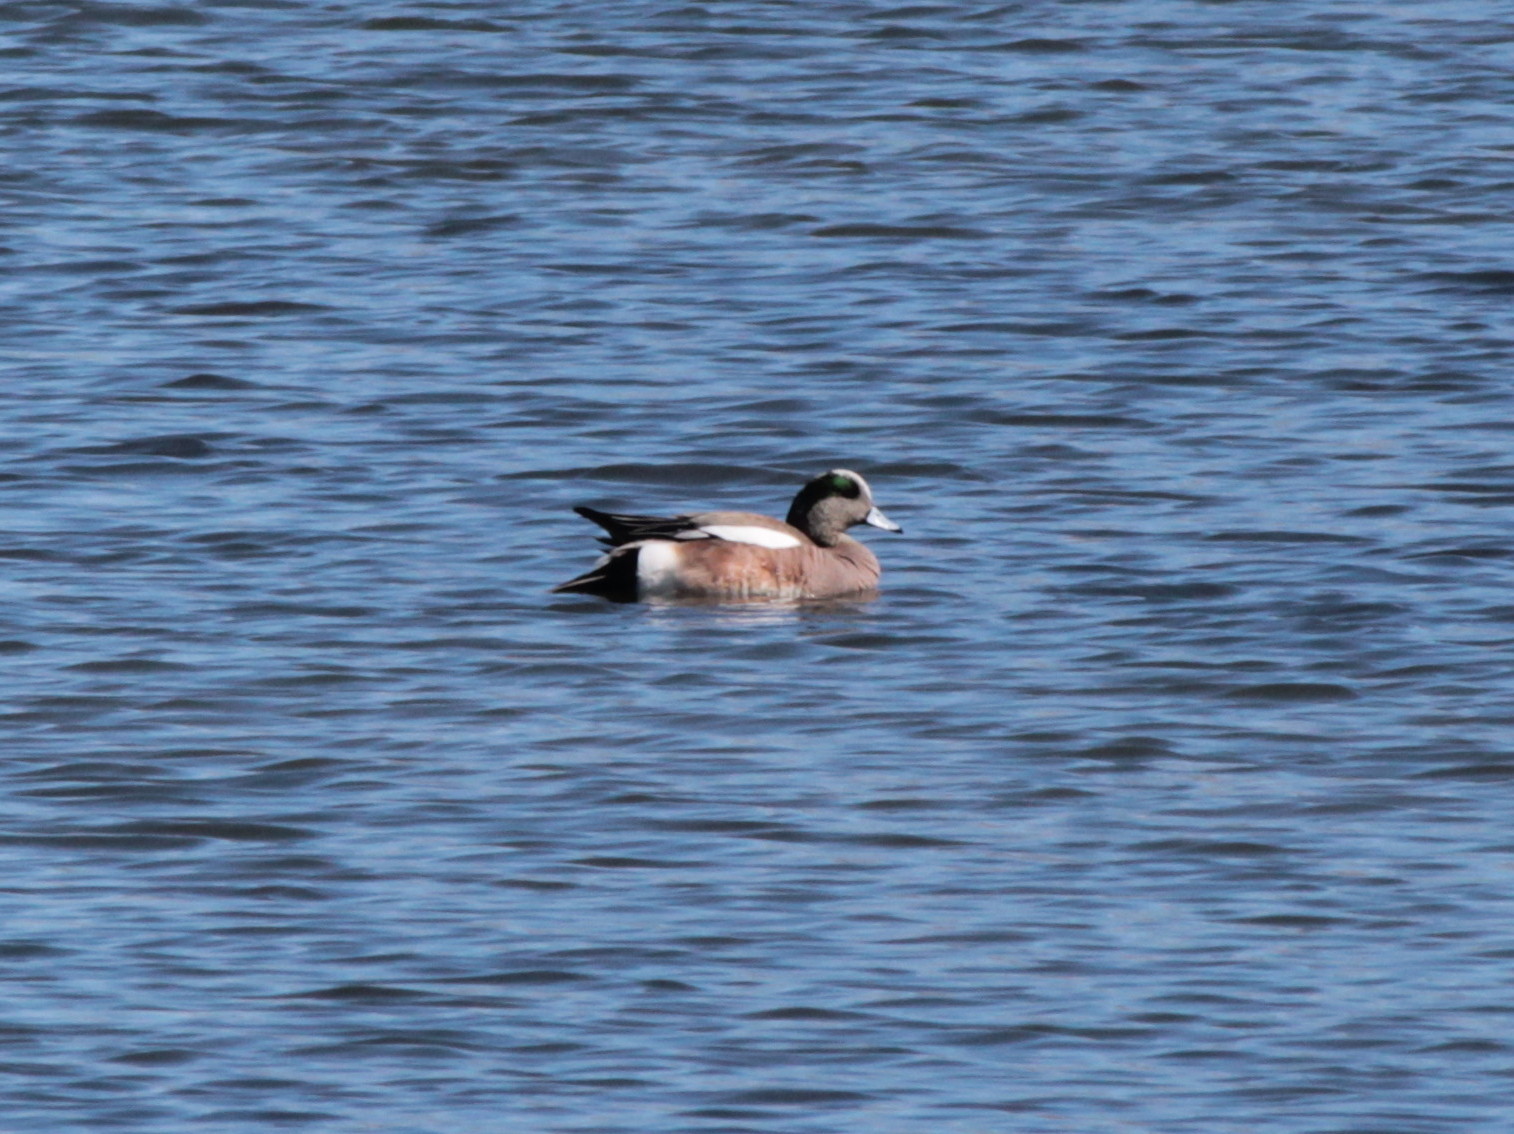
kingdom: Animalia
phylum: Chordata
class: Aves
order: Anseriformes
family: Anatidae
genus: Mareca
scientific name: Mareca americana
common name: American wigeon
